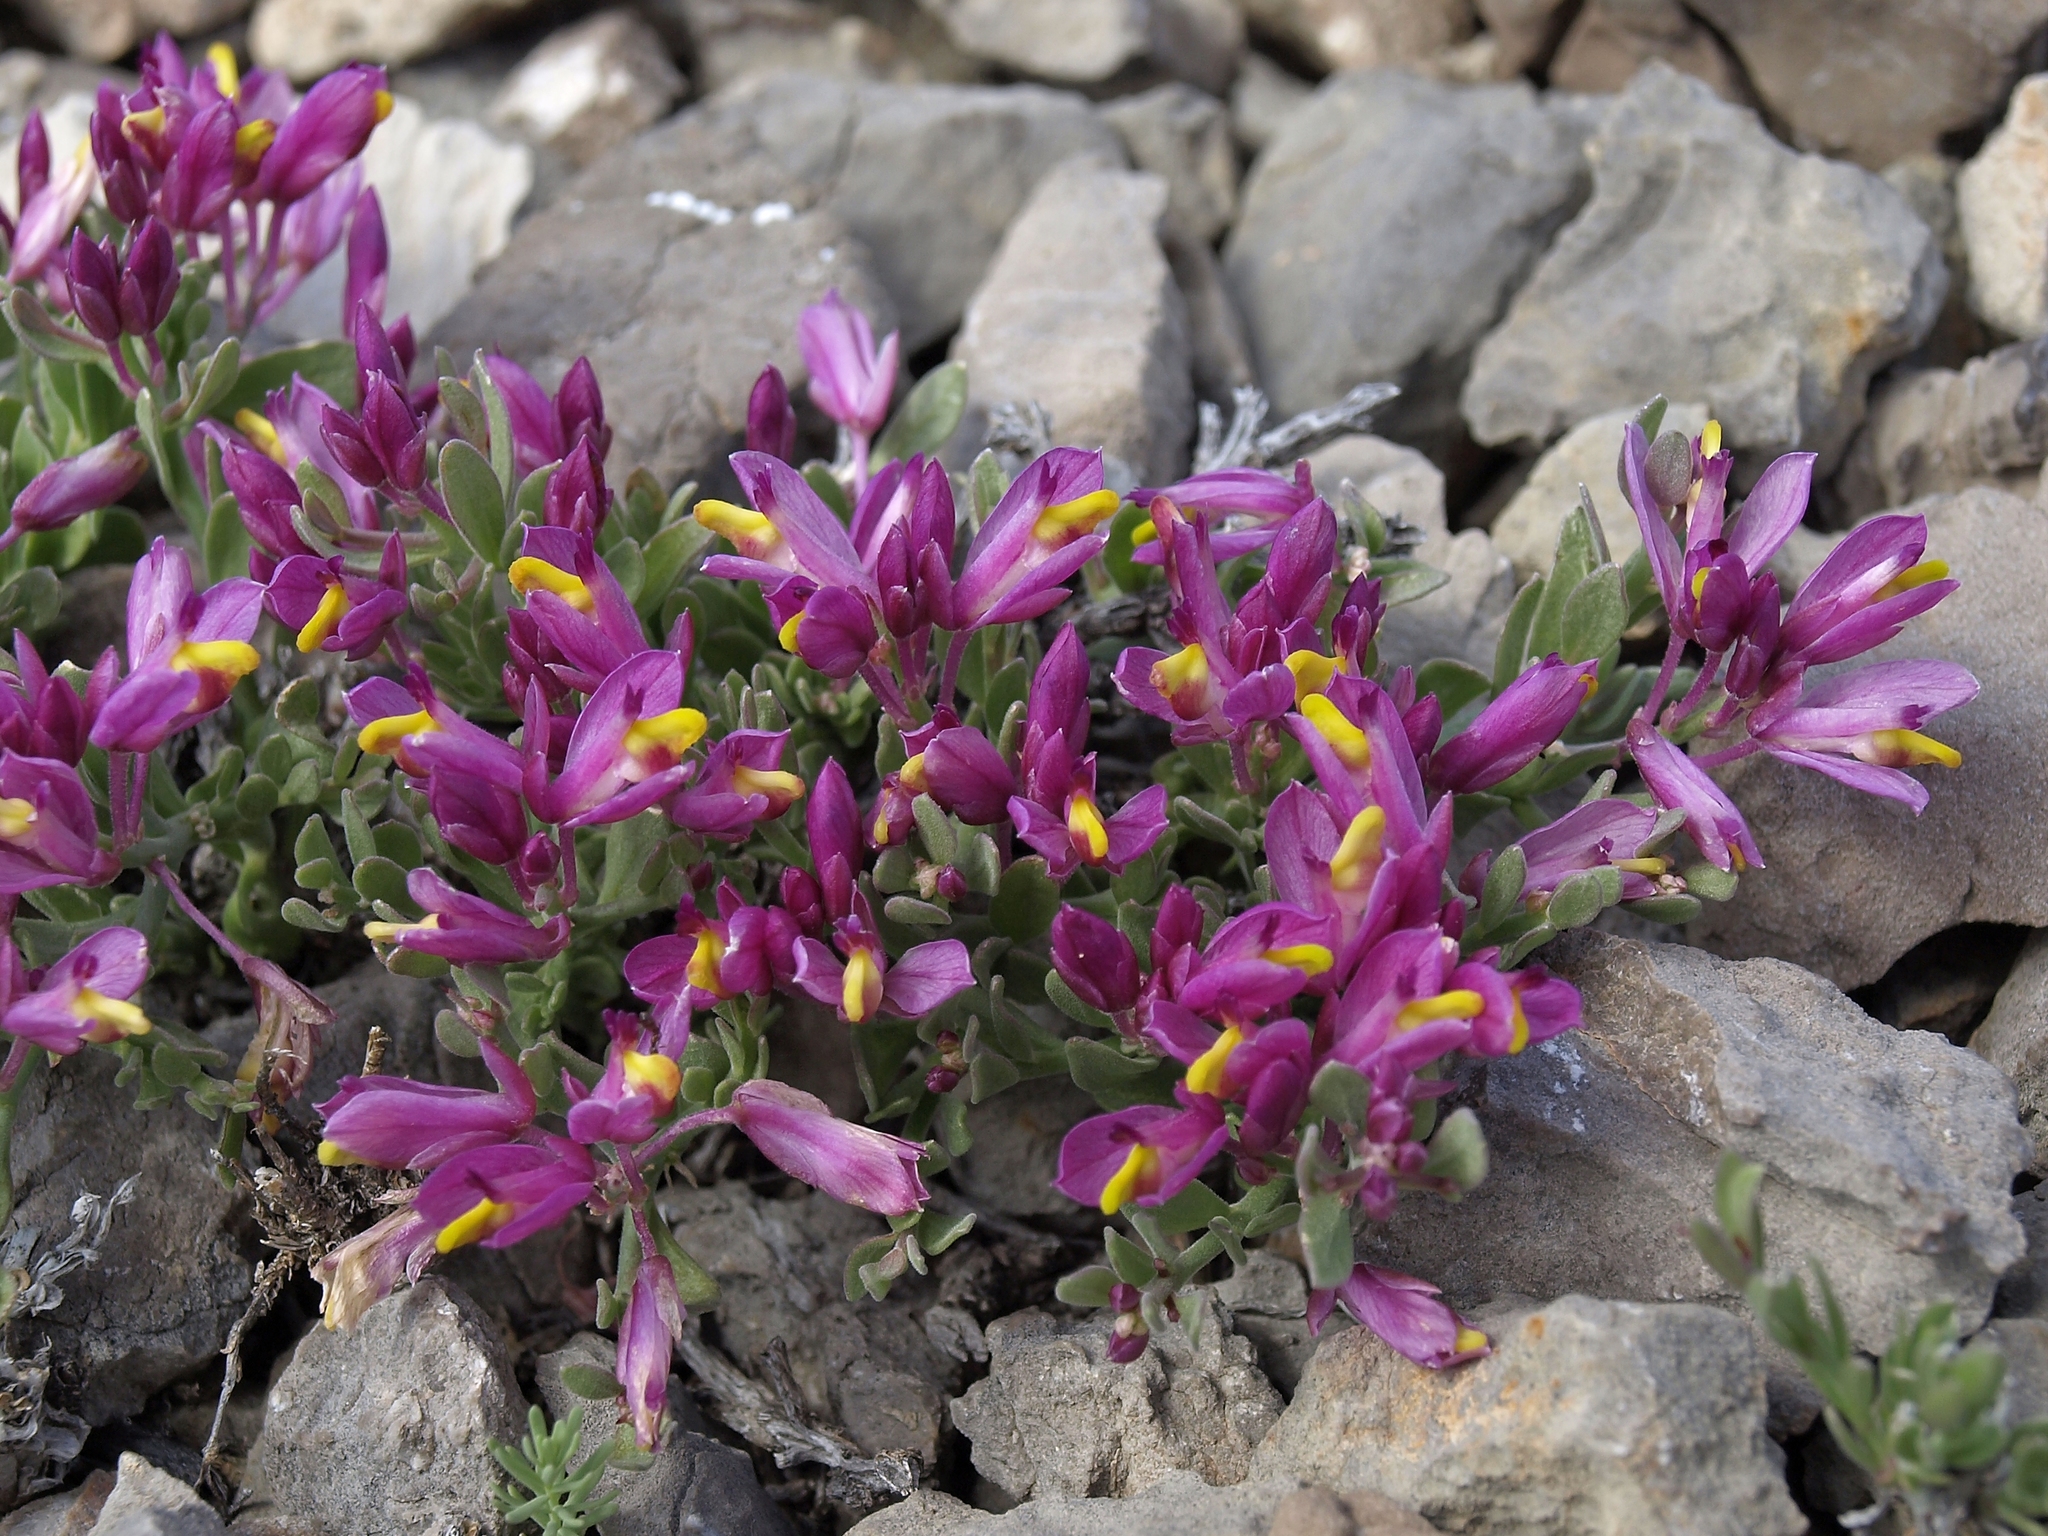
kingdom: Plantae
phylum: Tracheophyta
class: Magnoliopsida
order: Fabales
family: Polygalaceae
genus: Rhinotropis
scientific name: Rhinotropis subspinosa
